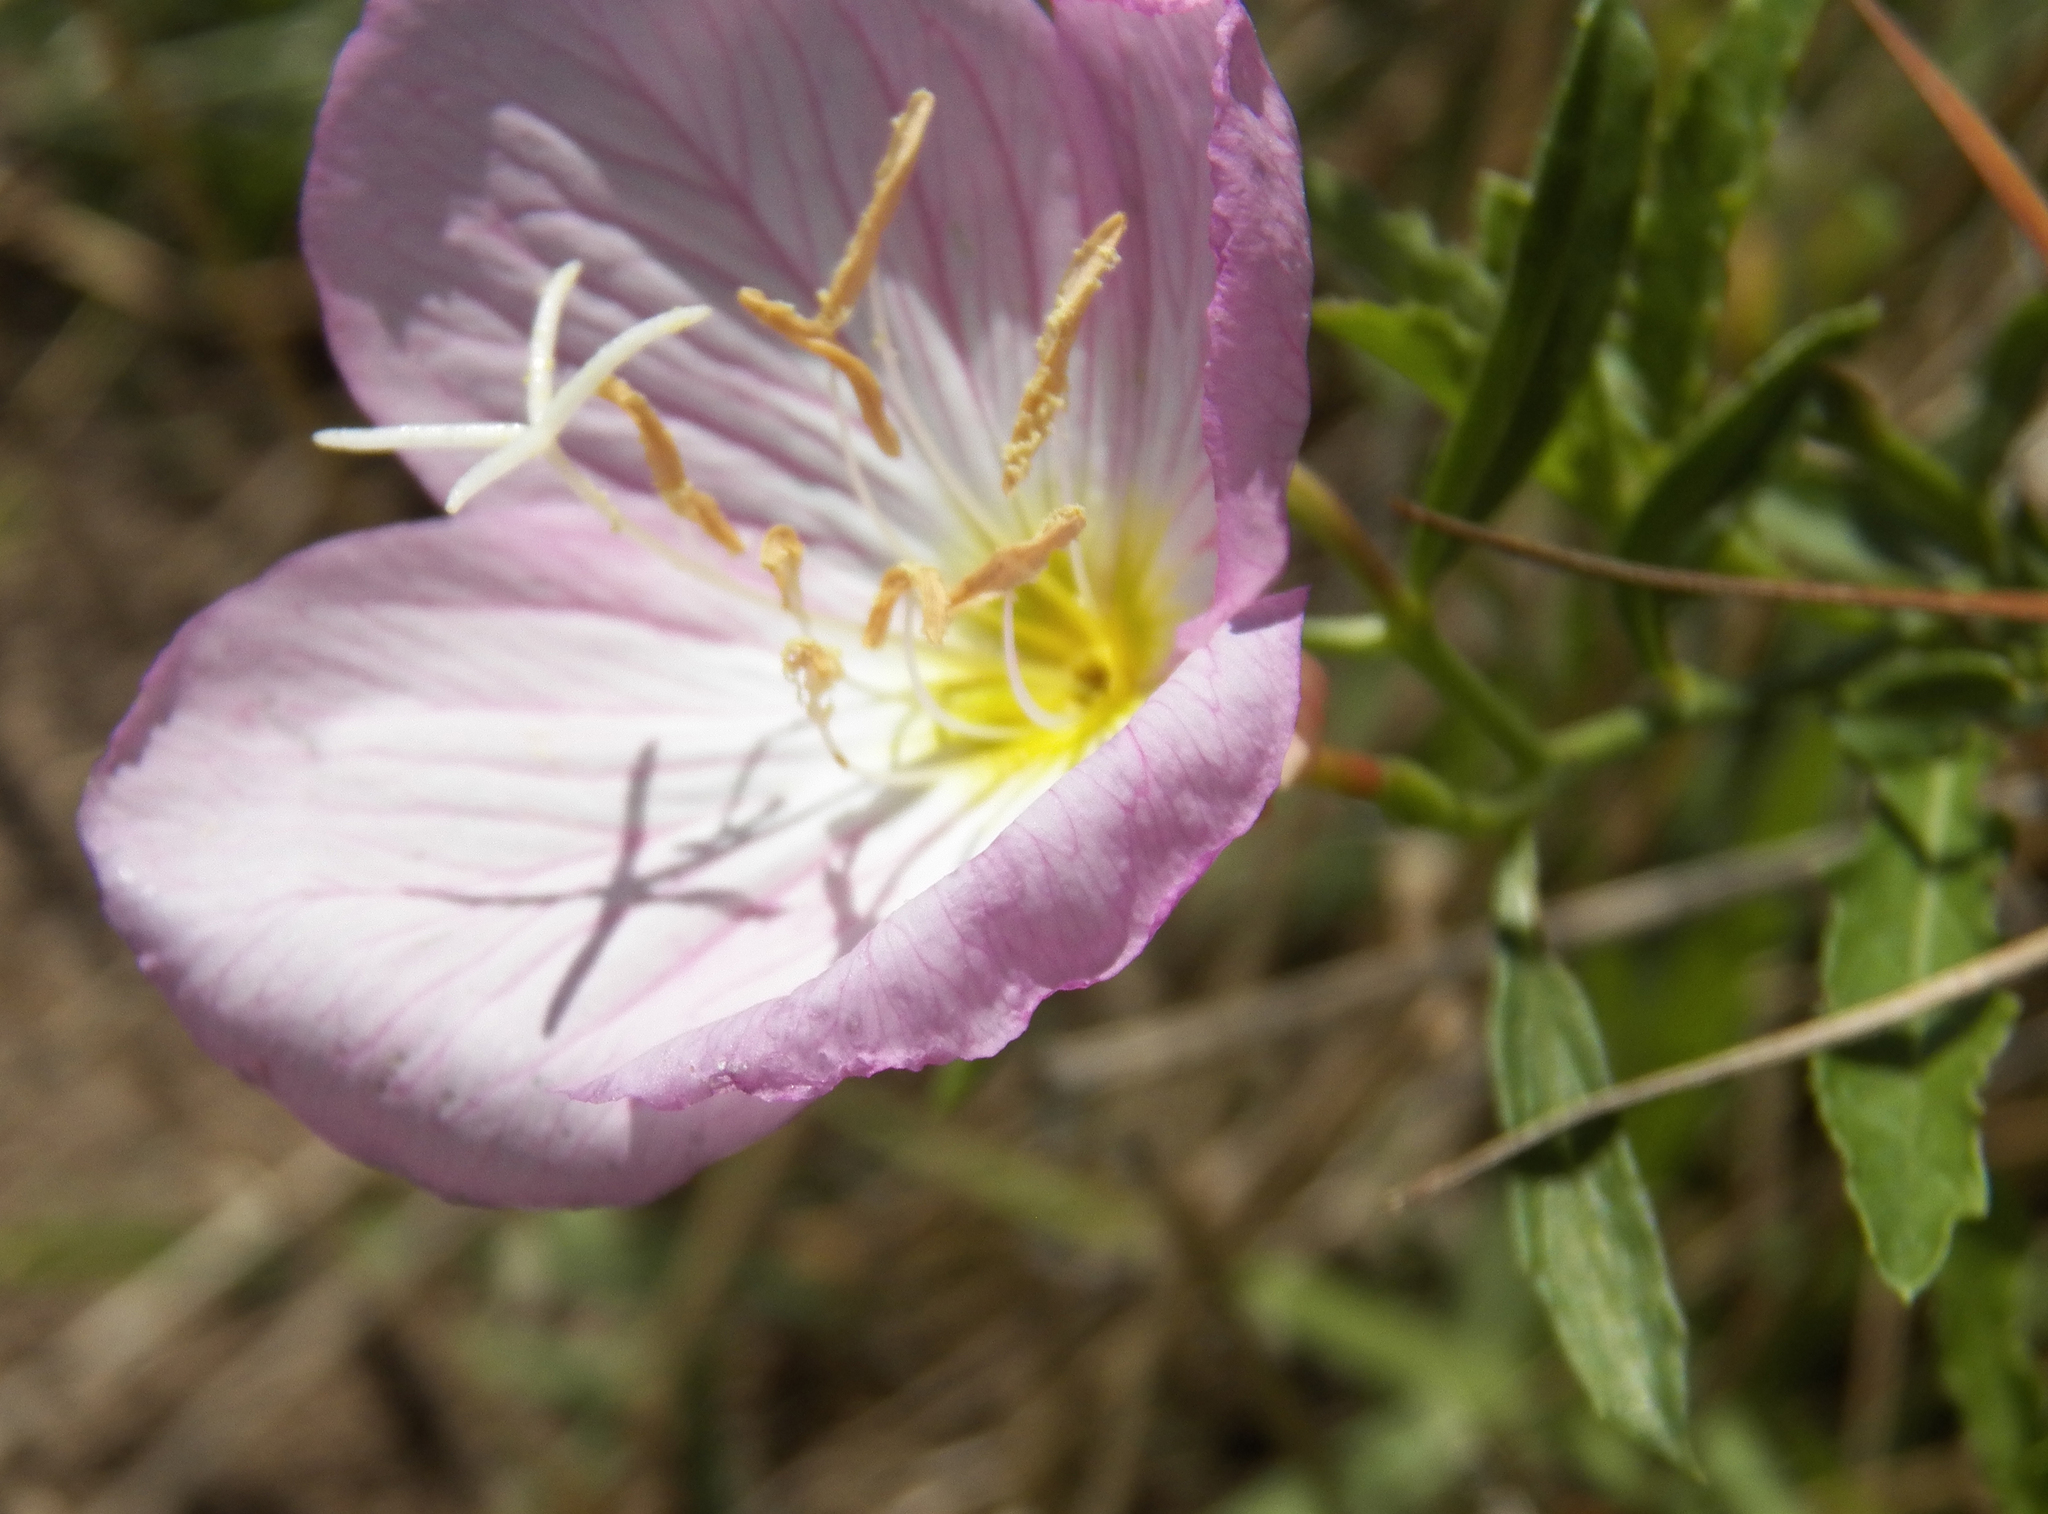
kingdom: Plantae
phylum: Tracheophyta
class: Magnoliopsida
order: Myrtales
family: Onagraceae
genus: Oenothera
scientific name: Oenothera speciosa
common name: White evening-primrose
